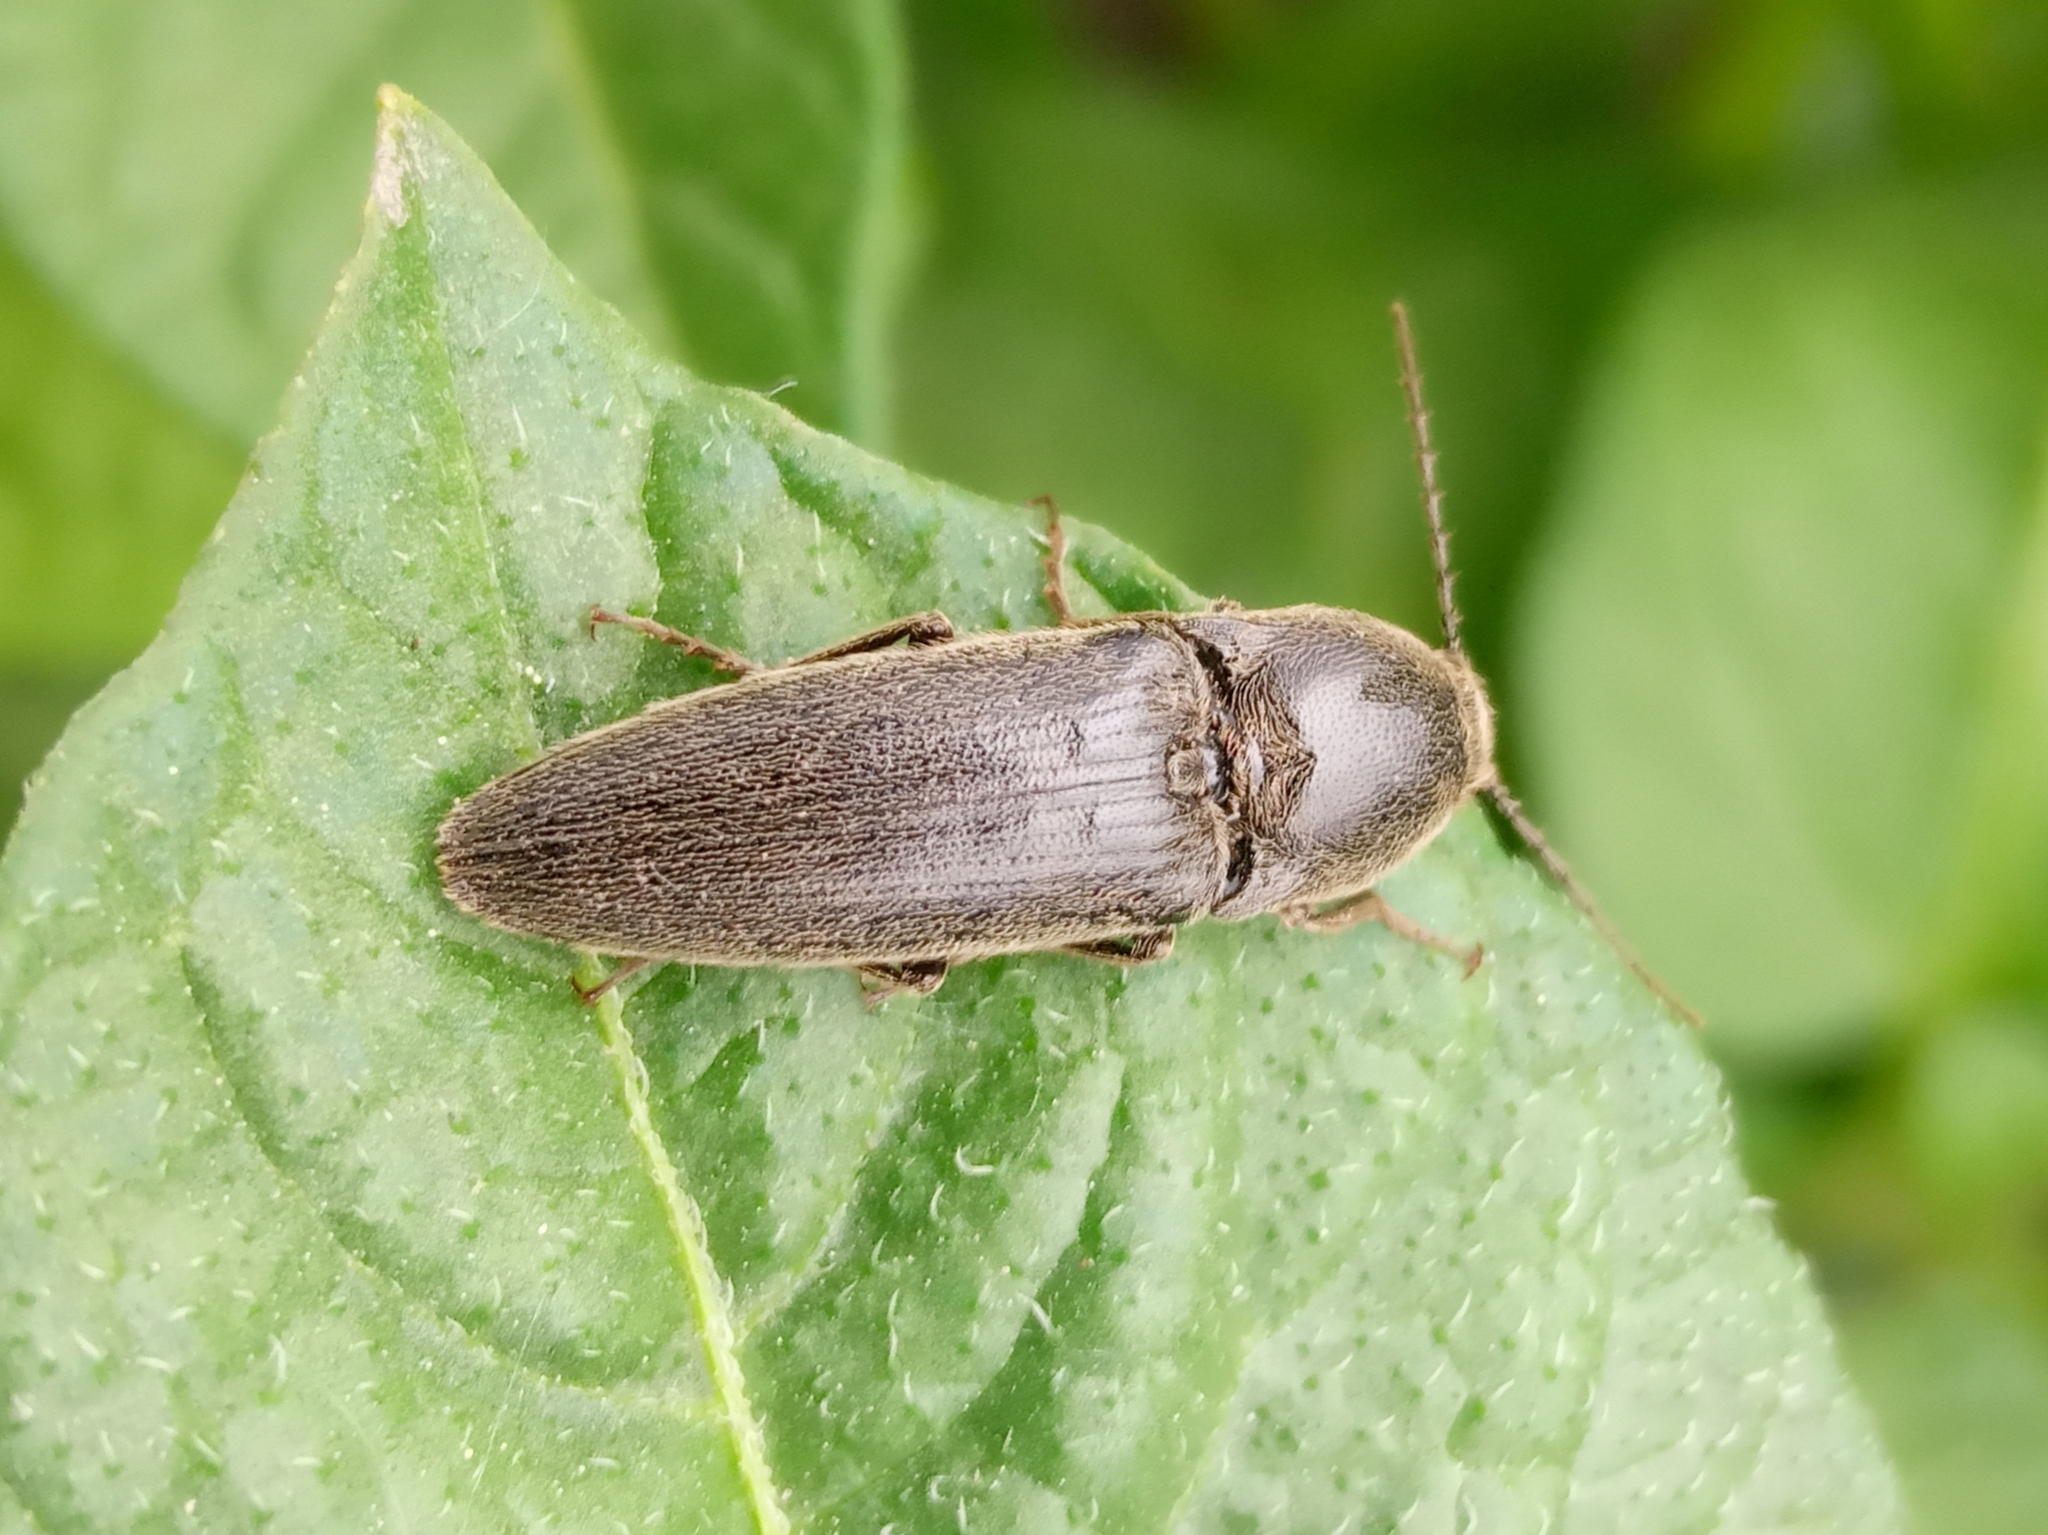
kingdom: Animalia
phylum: Arthropoda
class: Insecta
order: Coleoptera
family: Elateridae
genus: Melanotus
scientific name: Melanotus
